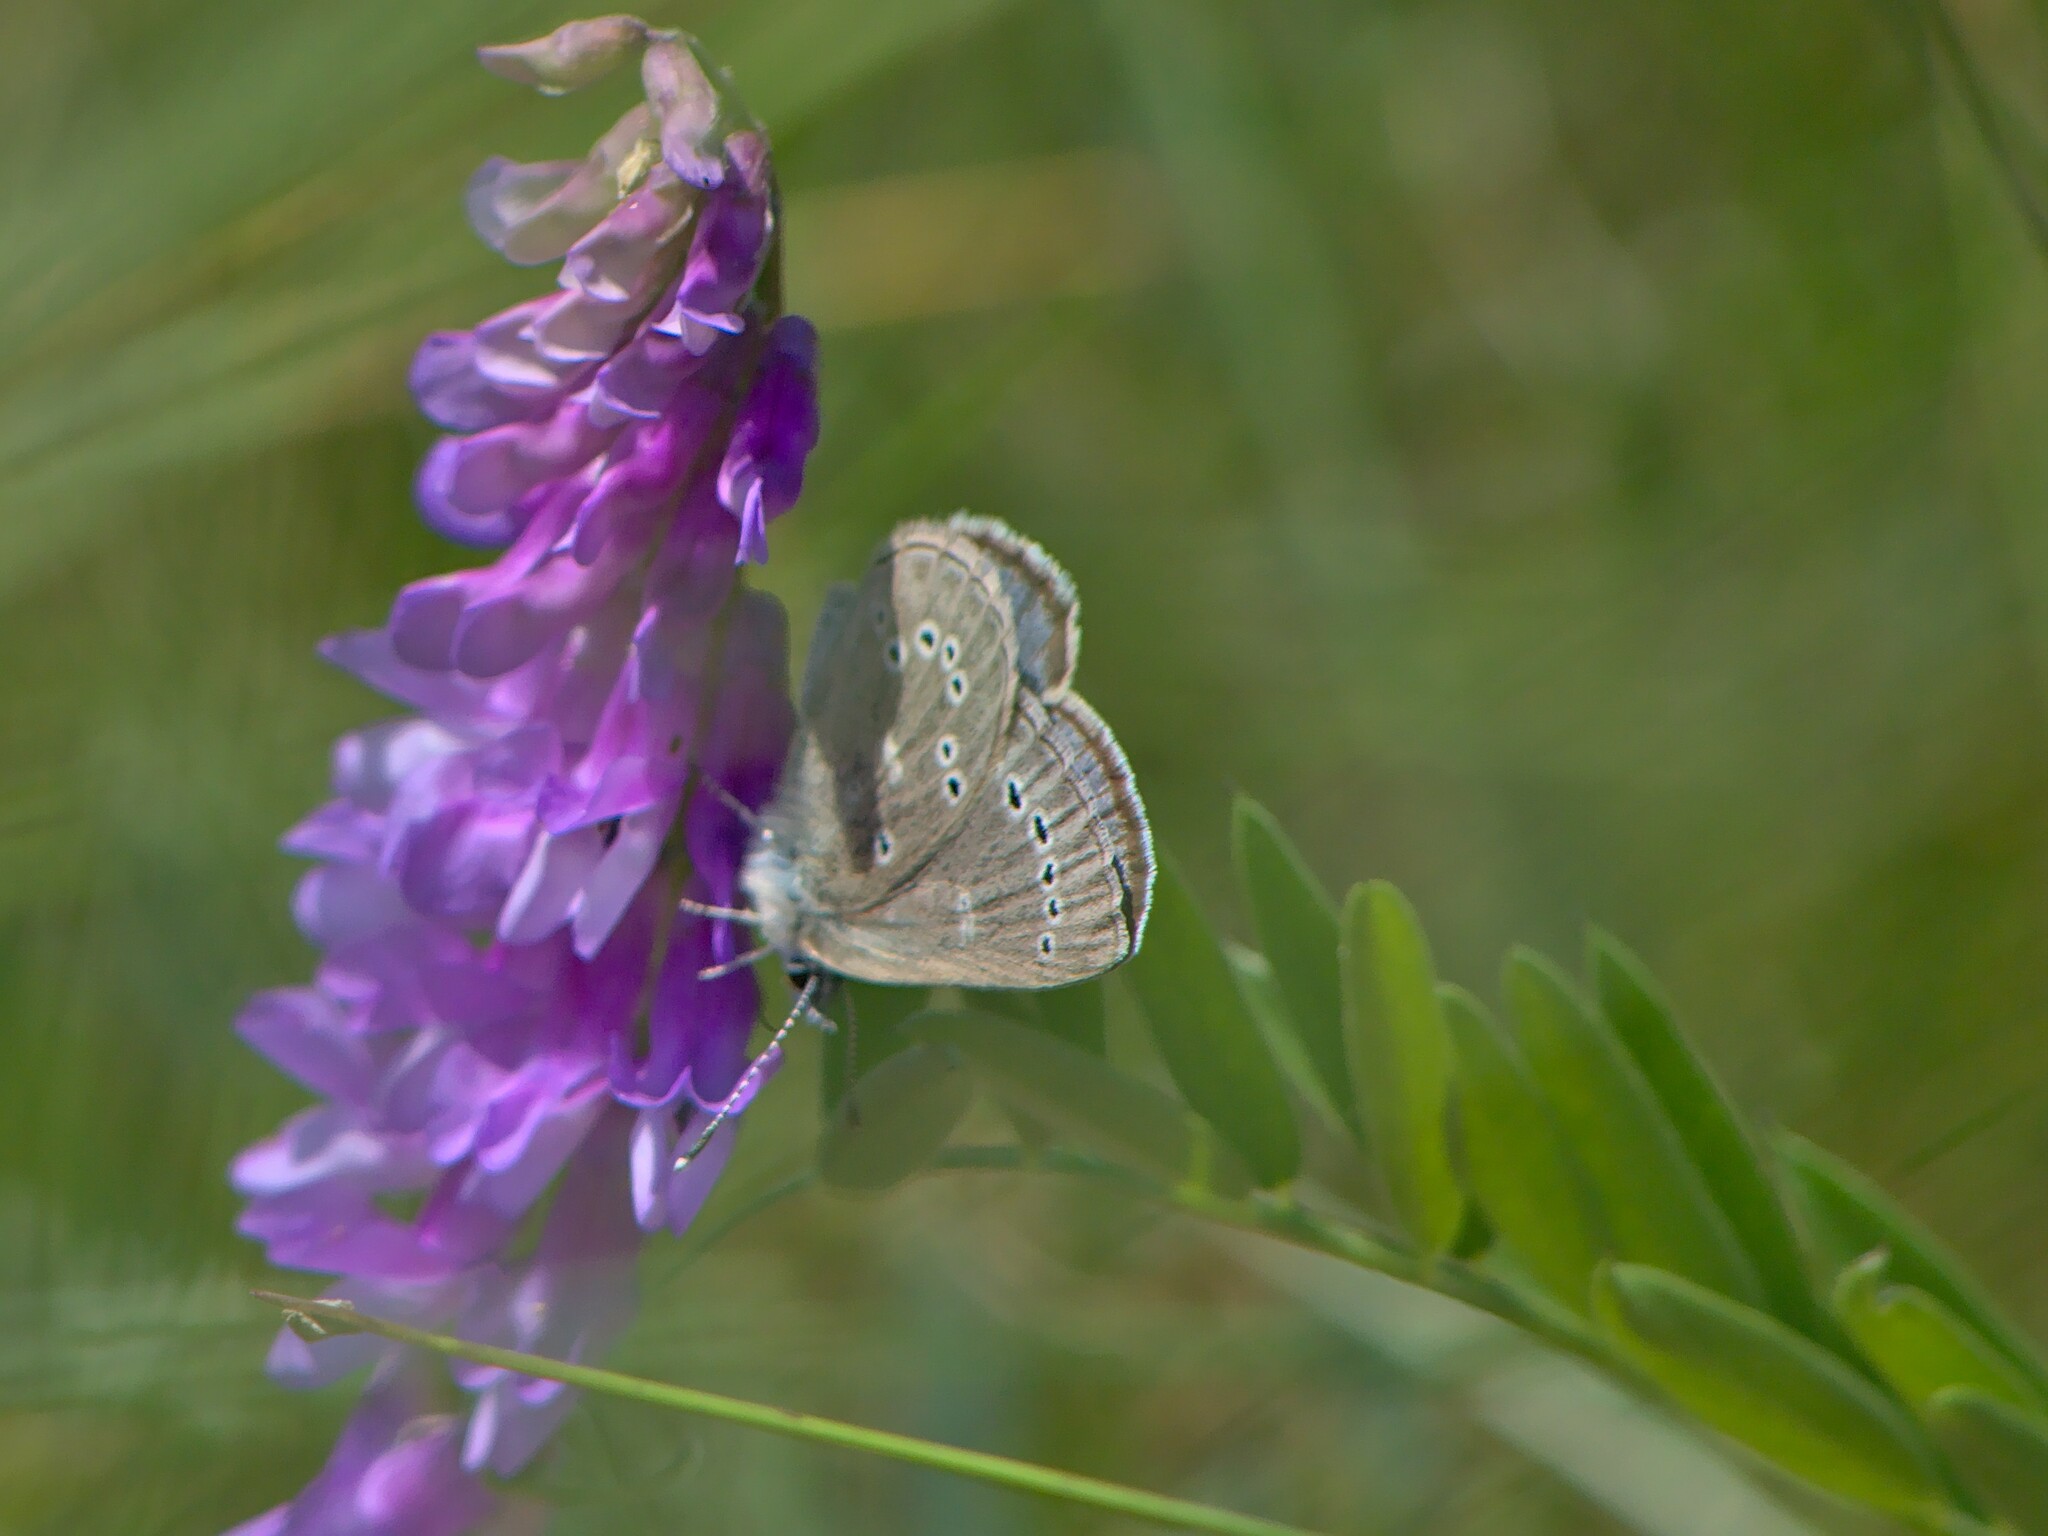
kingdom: Animalia
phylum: Arthropoda
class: Insecta
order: Lepidoptera
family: Lycaenidae
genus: Glaucopsyche
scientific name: Glaucopsyche lygdamus
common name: Silvery blue
